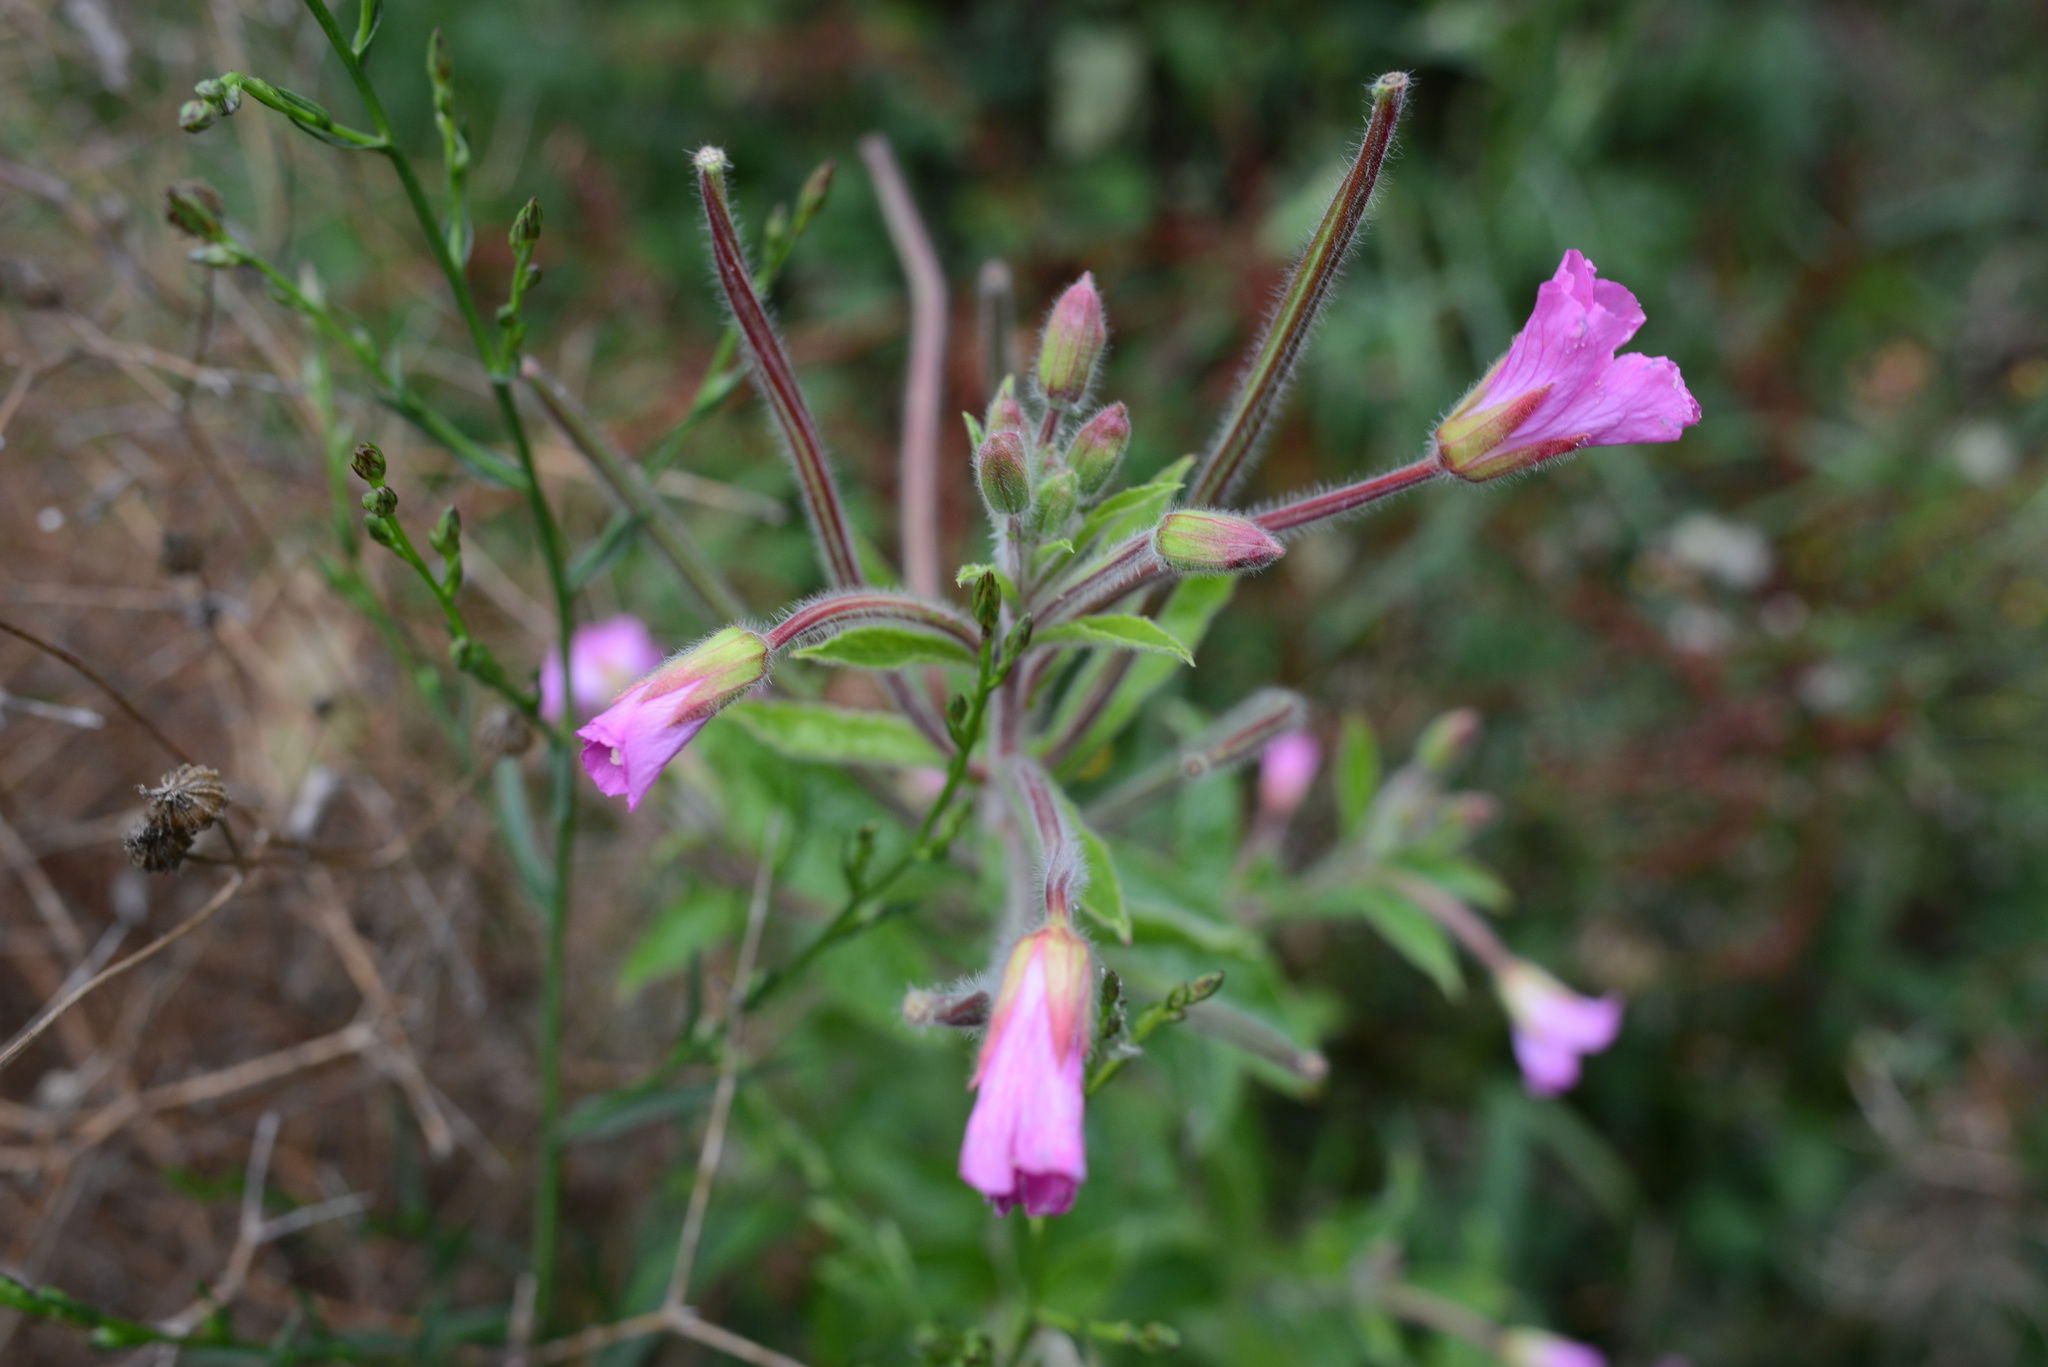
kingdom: Plantae
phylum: Tracheophyta
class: Magnoliopsida
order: Myrtales
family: Onagraceae
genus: Epilobium
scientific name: Epilobium hirsutum
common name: Great willowherb
